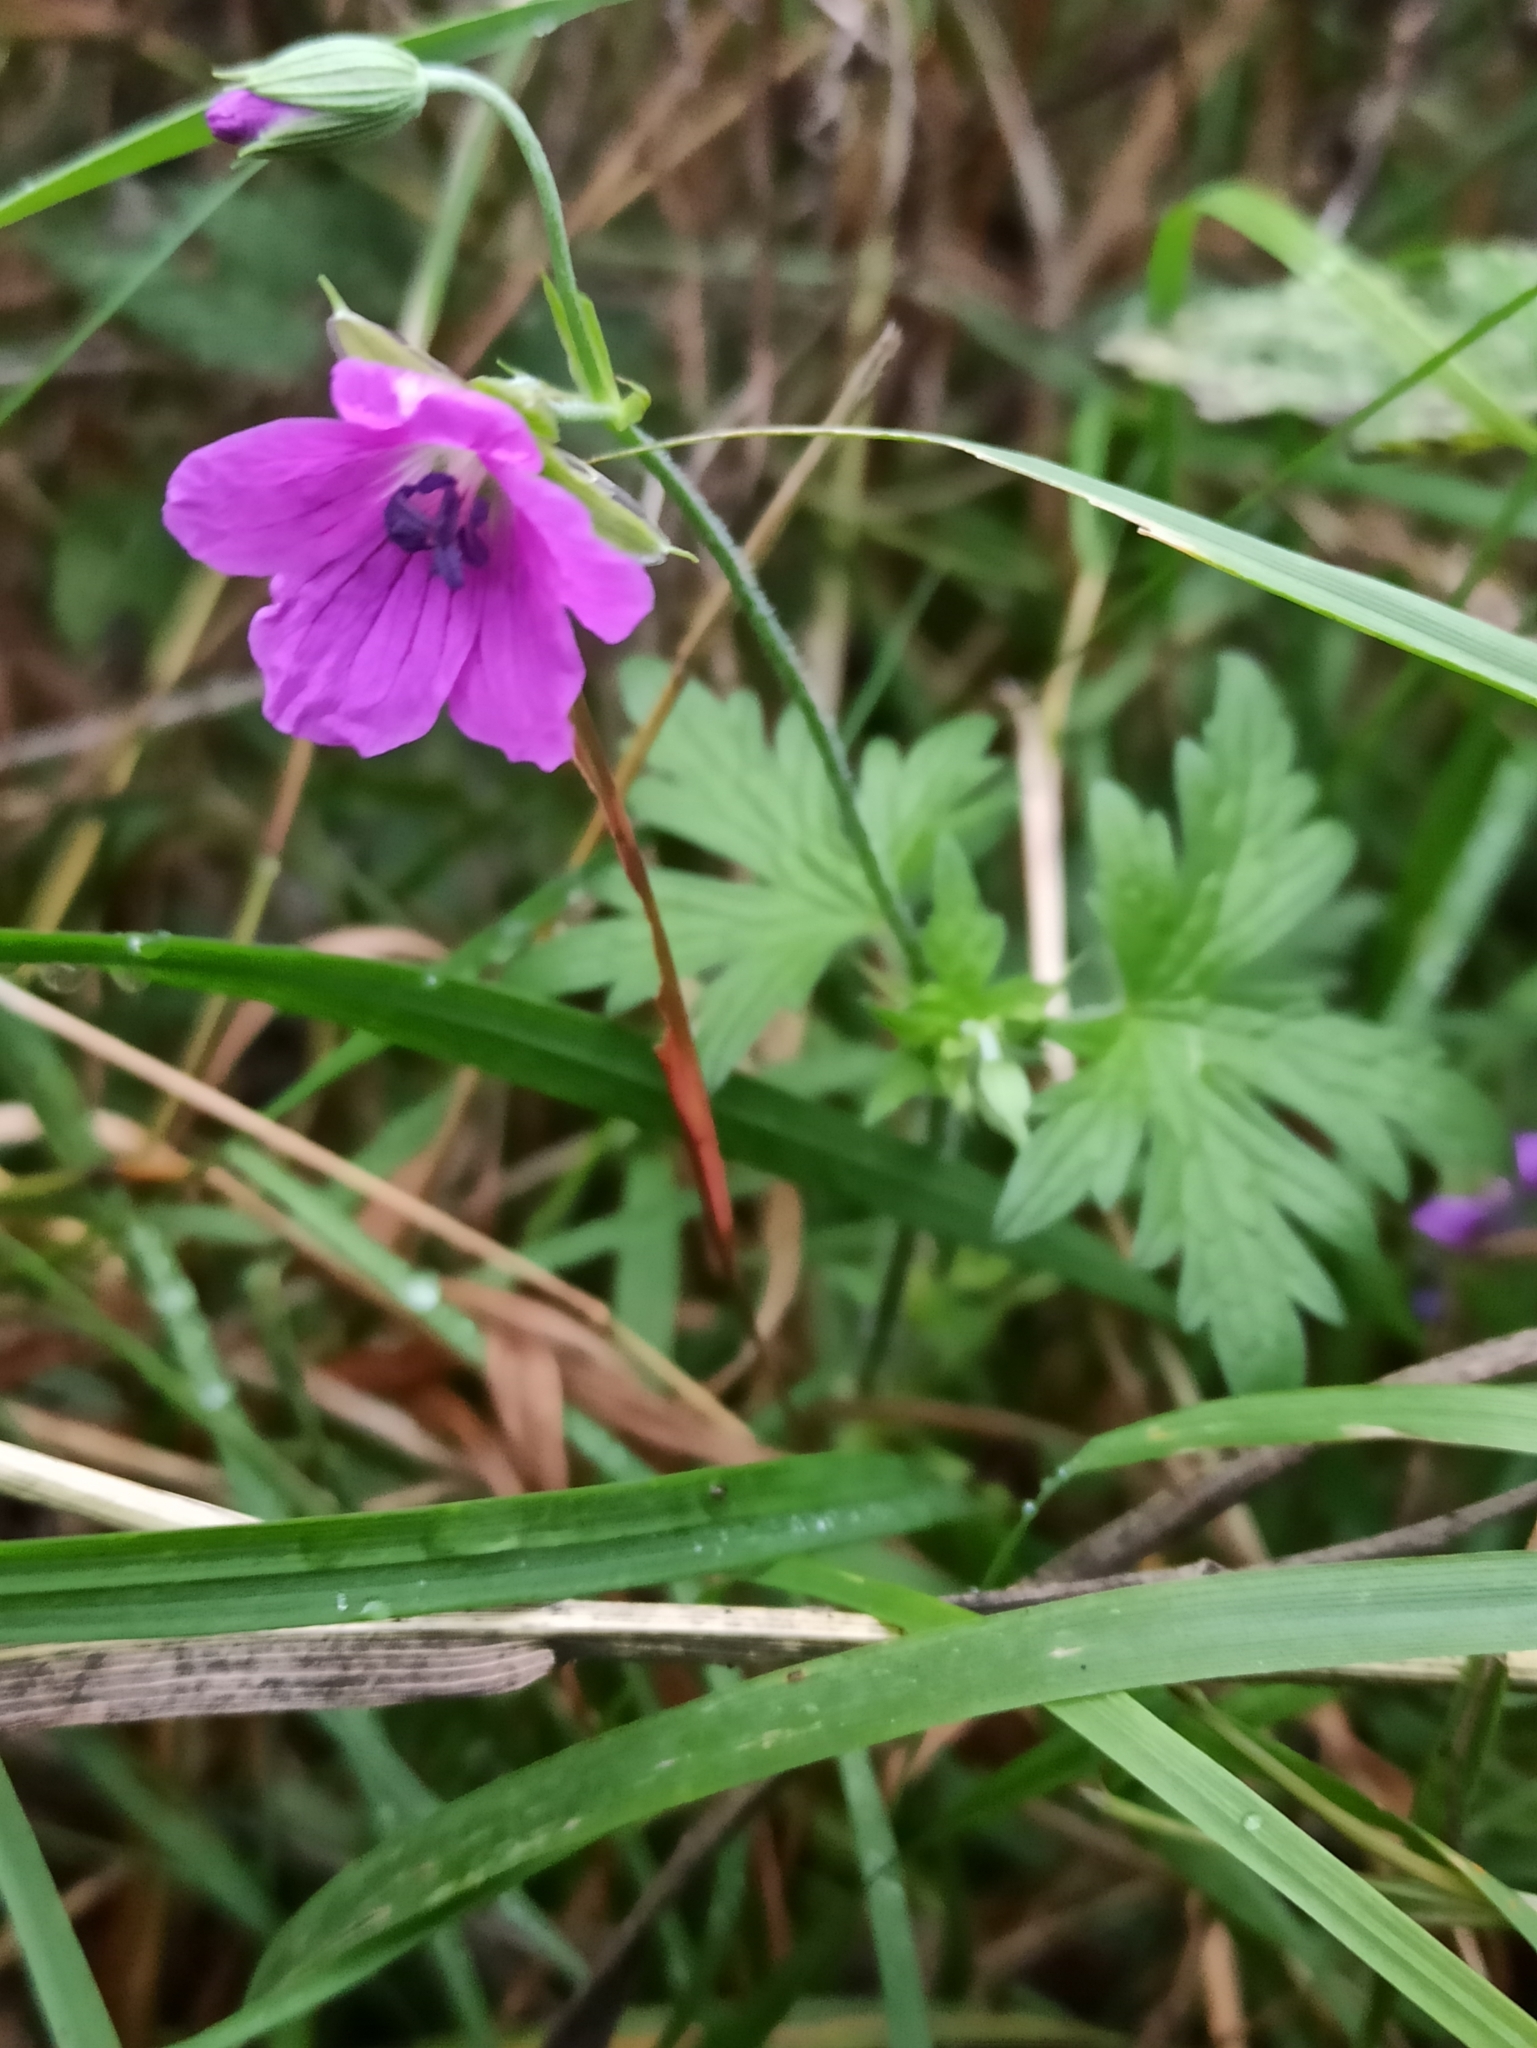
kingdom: Plantae
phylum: Tracheophyta
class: Magnoliopsida
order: Geraniales
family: Geraniaceae
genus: Geranium
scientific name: Geranium palustre
